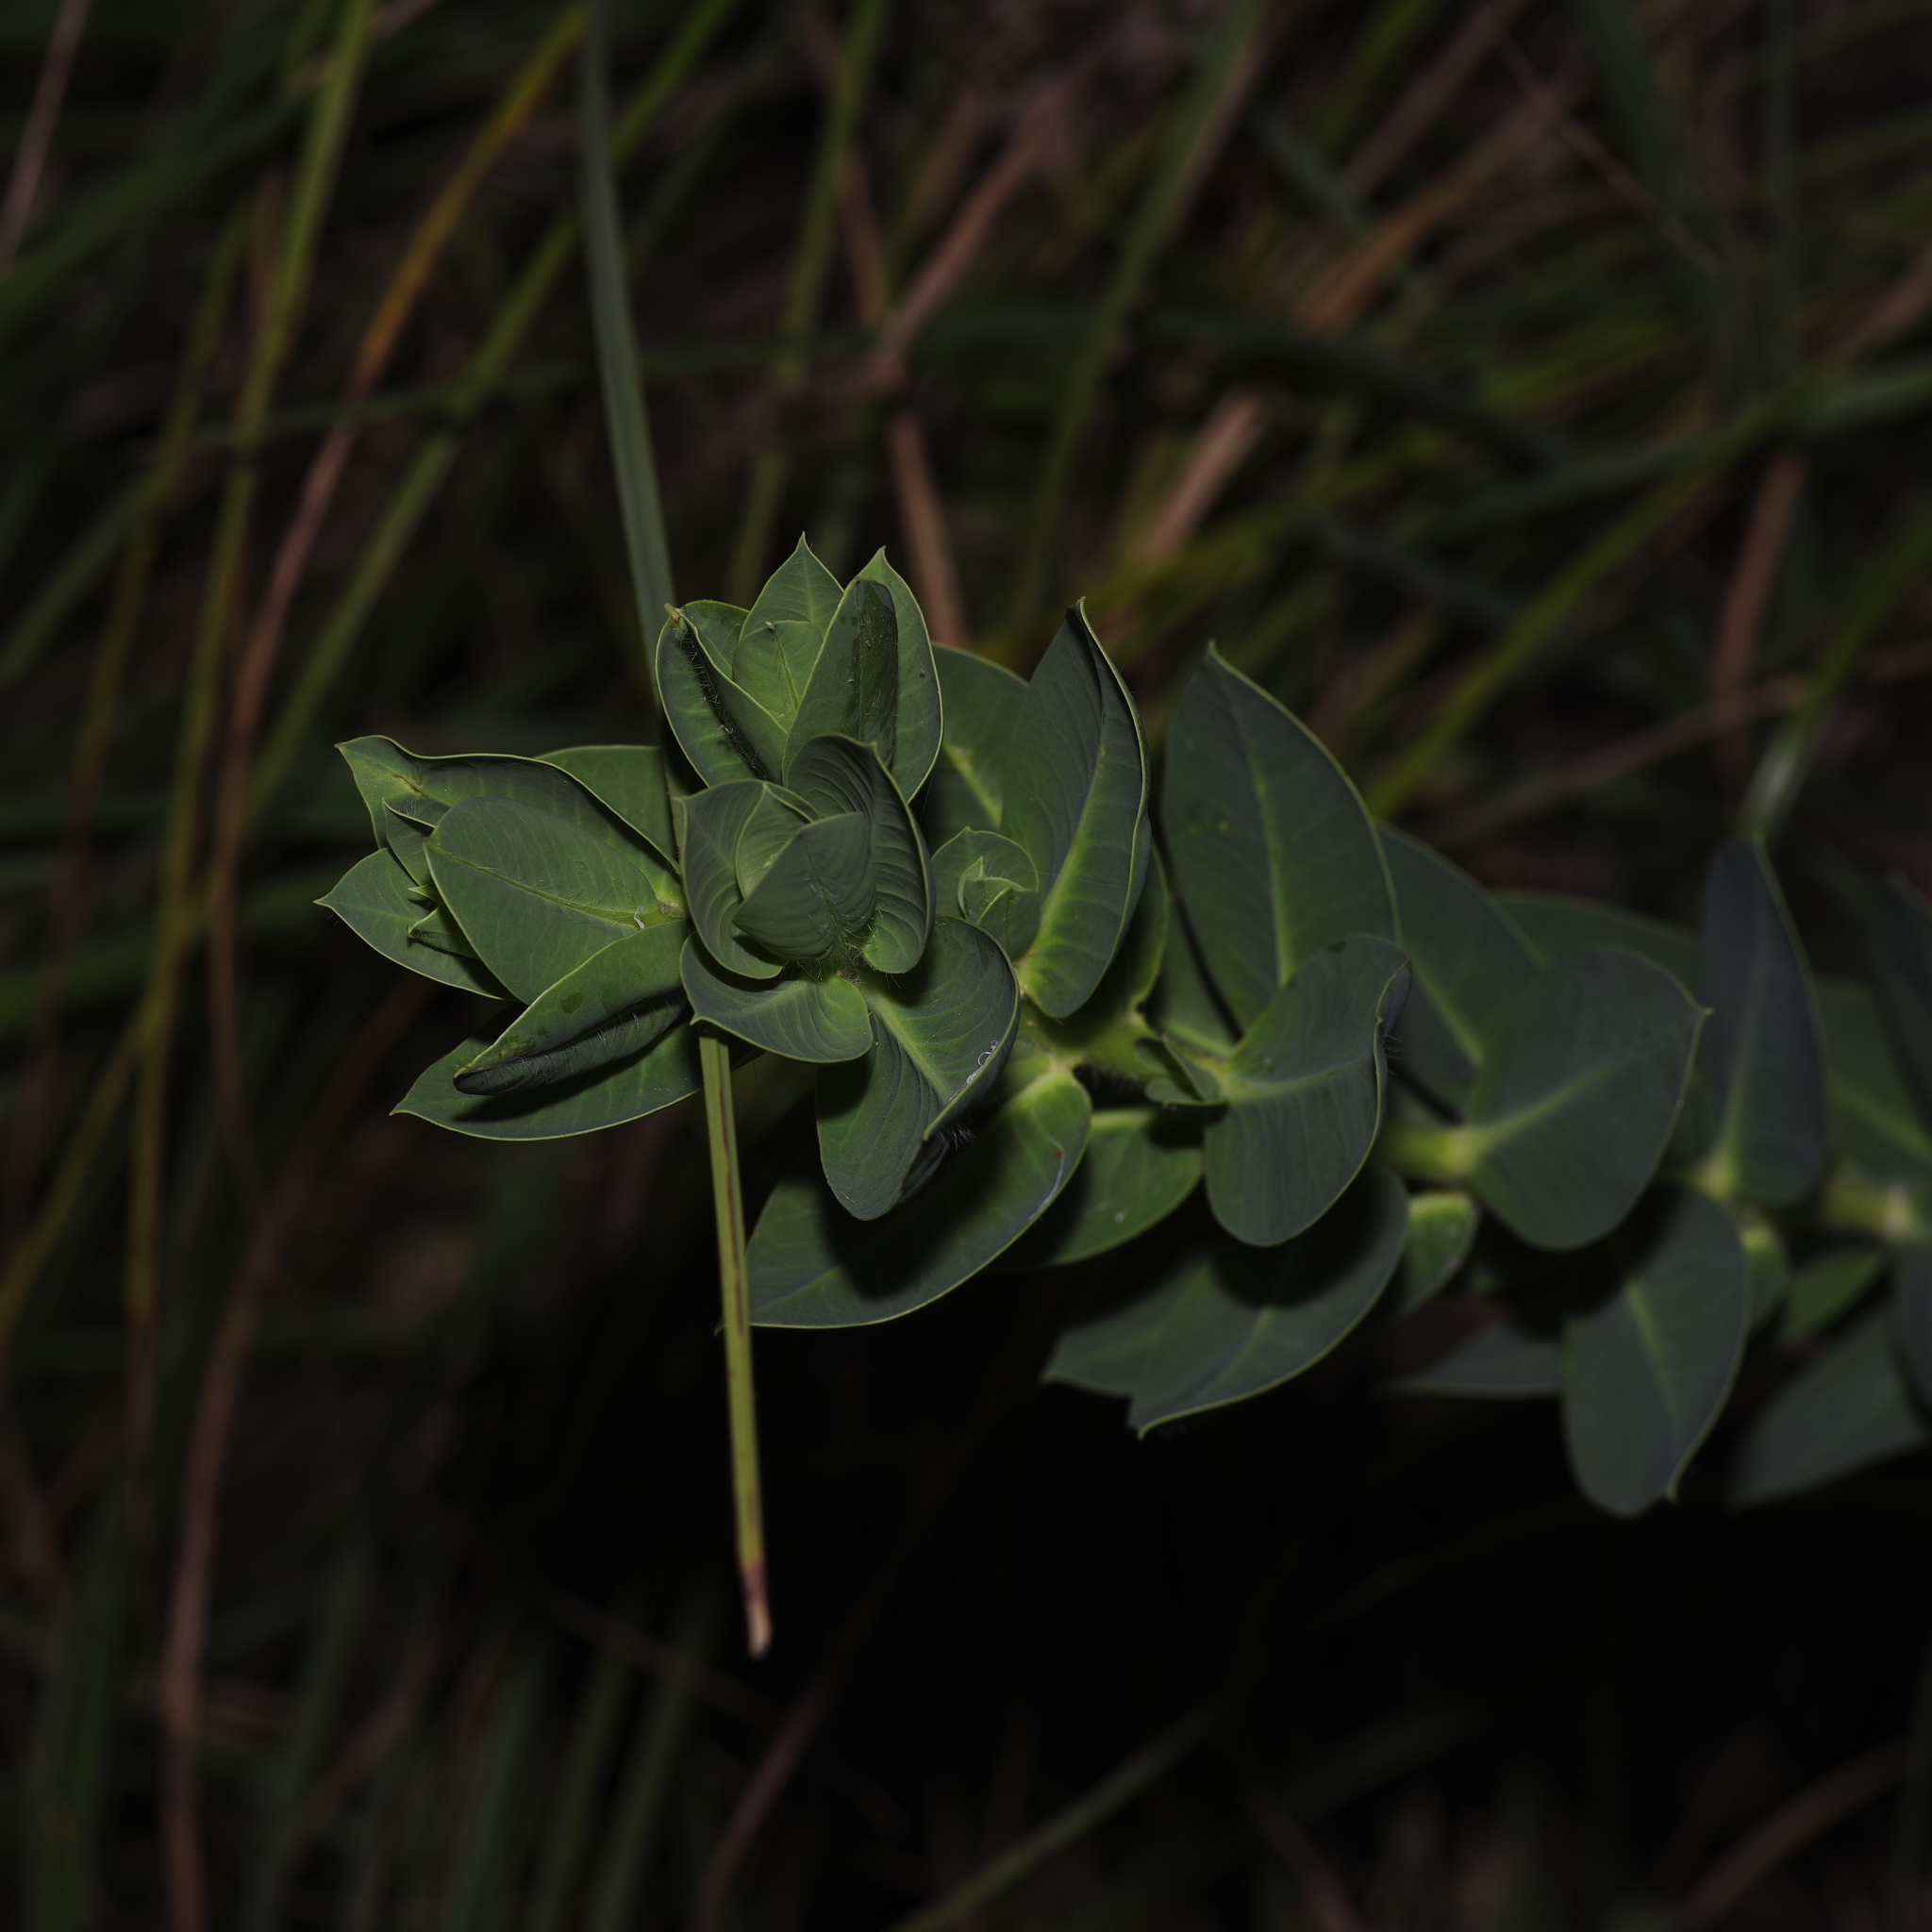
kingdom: Plantae
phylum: Tracheophyta
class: Magnoliopsida
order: Malpighiales
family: Euphorbiaceae
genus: Euphorbia
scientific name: Euphorbia marginata
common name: Ghostweed
